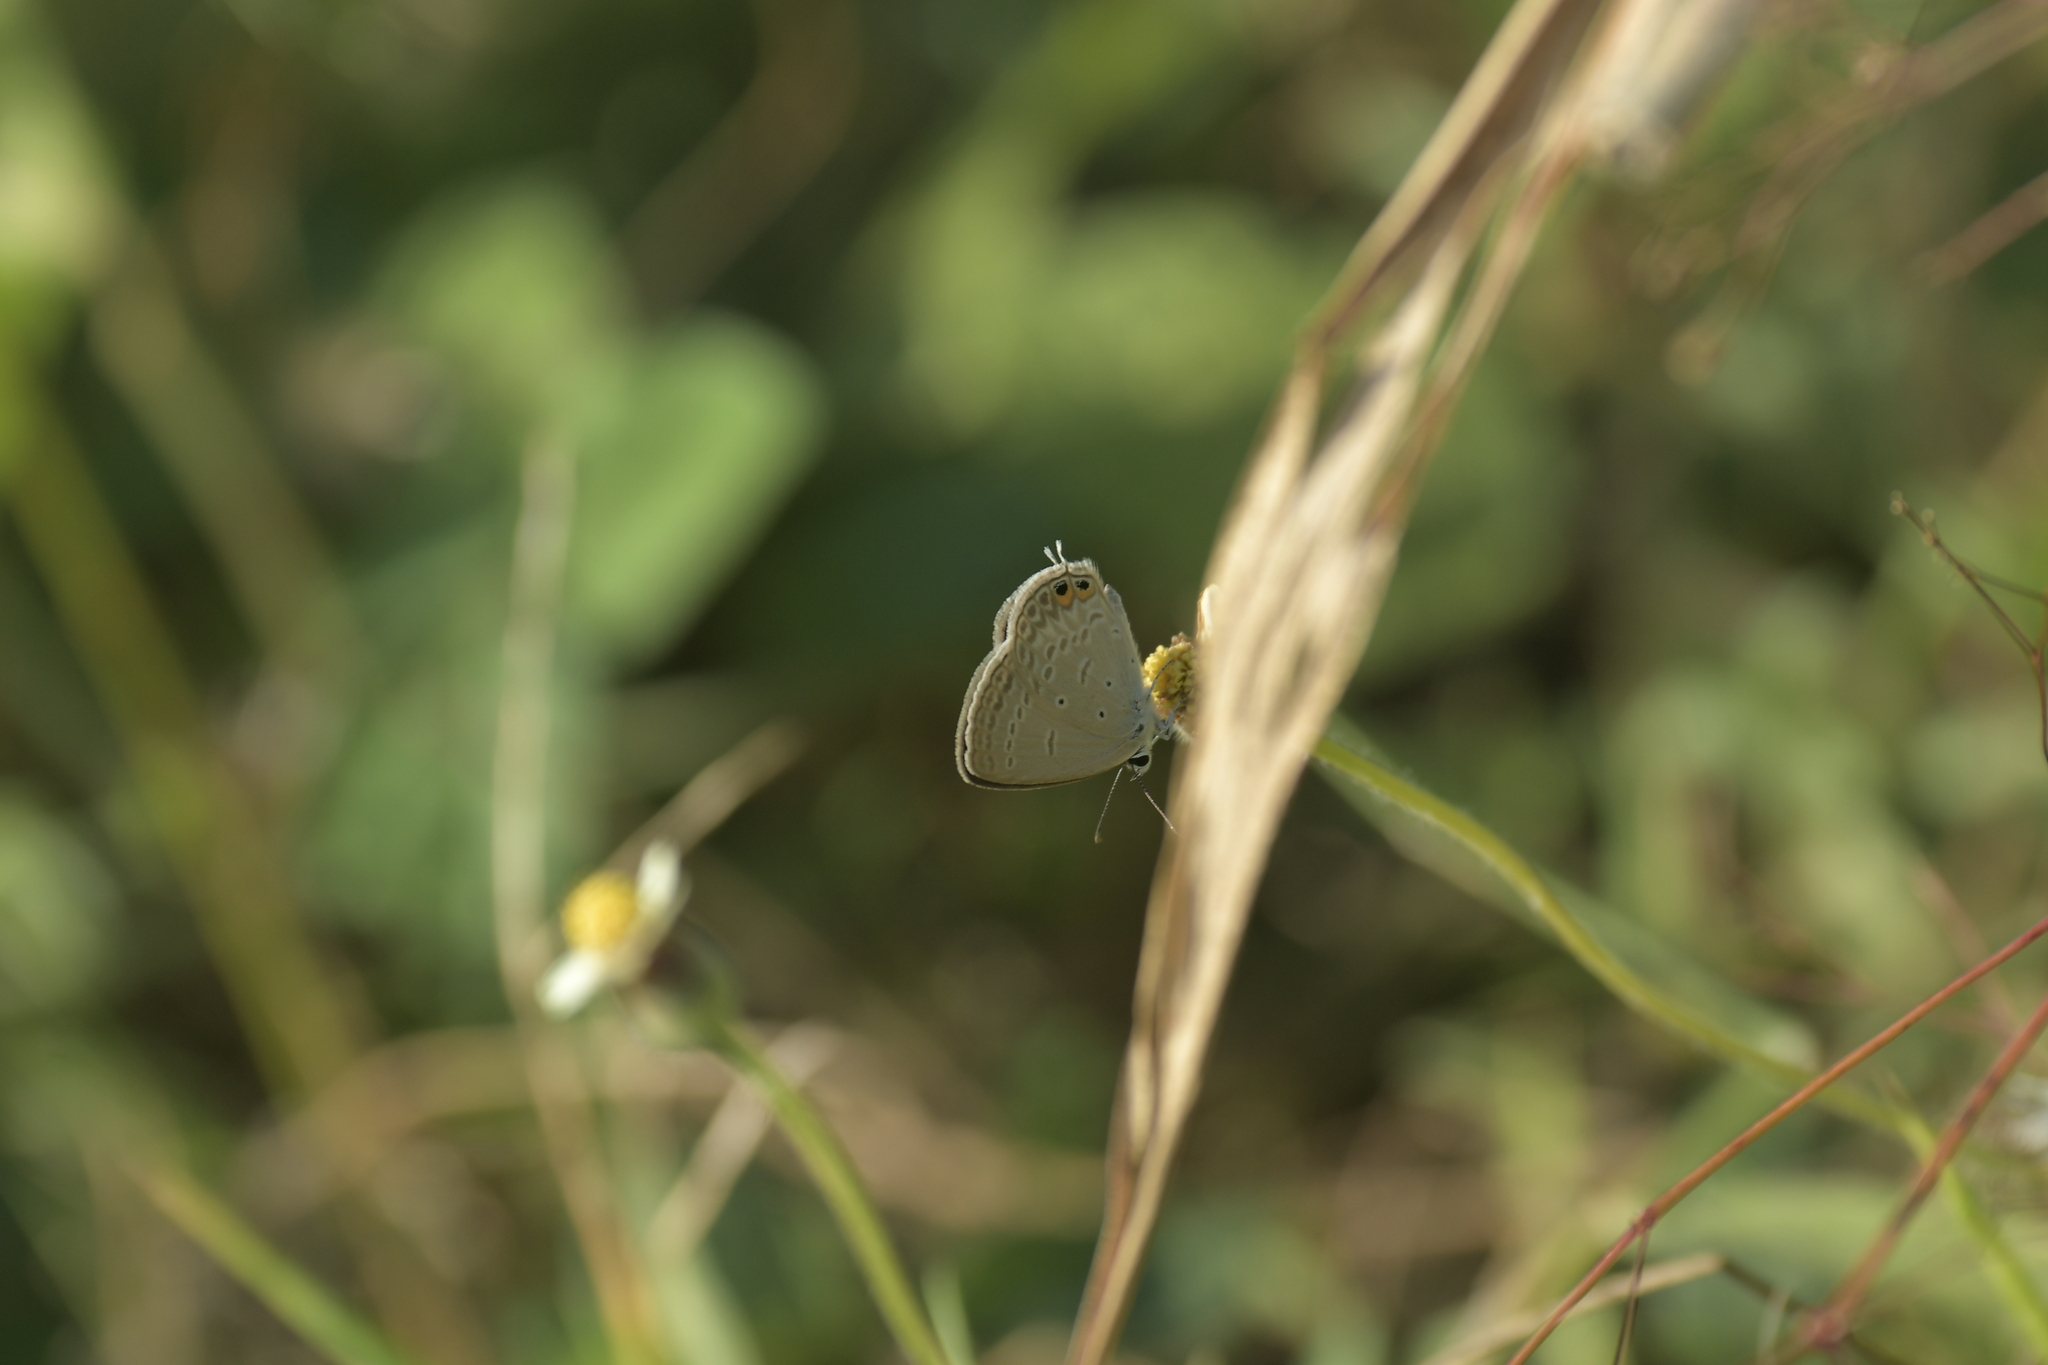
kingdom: Animalia
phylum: Arthropoda
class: Insecta
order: Lepidoptera
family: Lycaenidae
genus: Euchrysops
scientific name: Euchrysops cnejus
